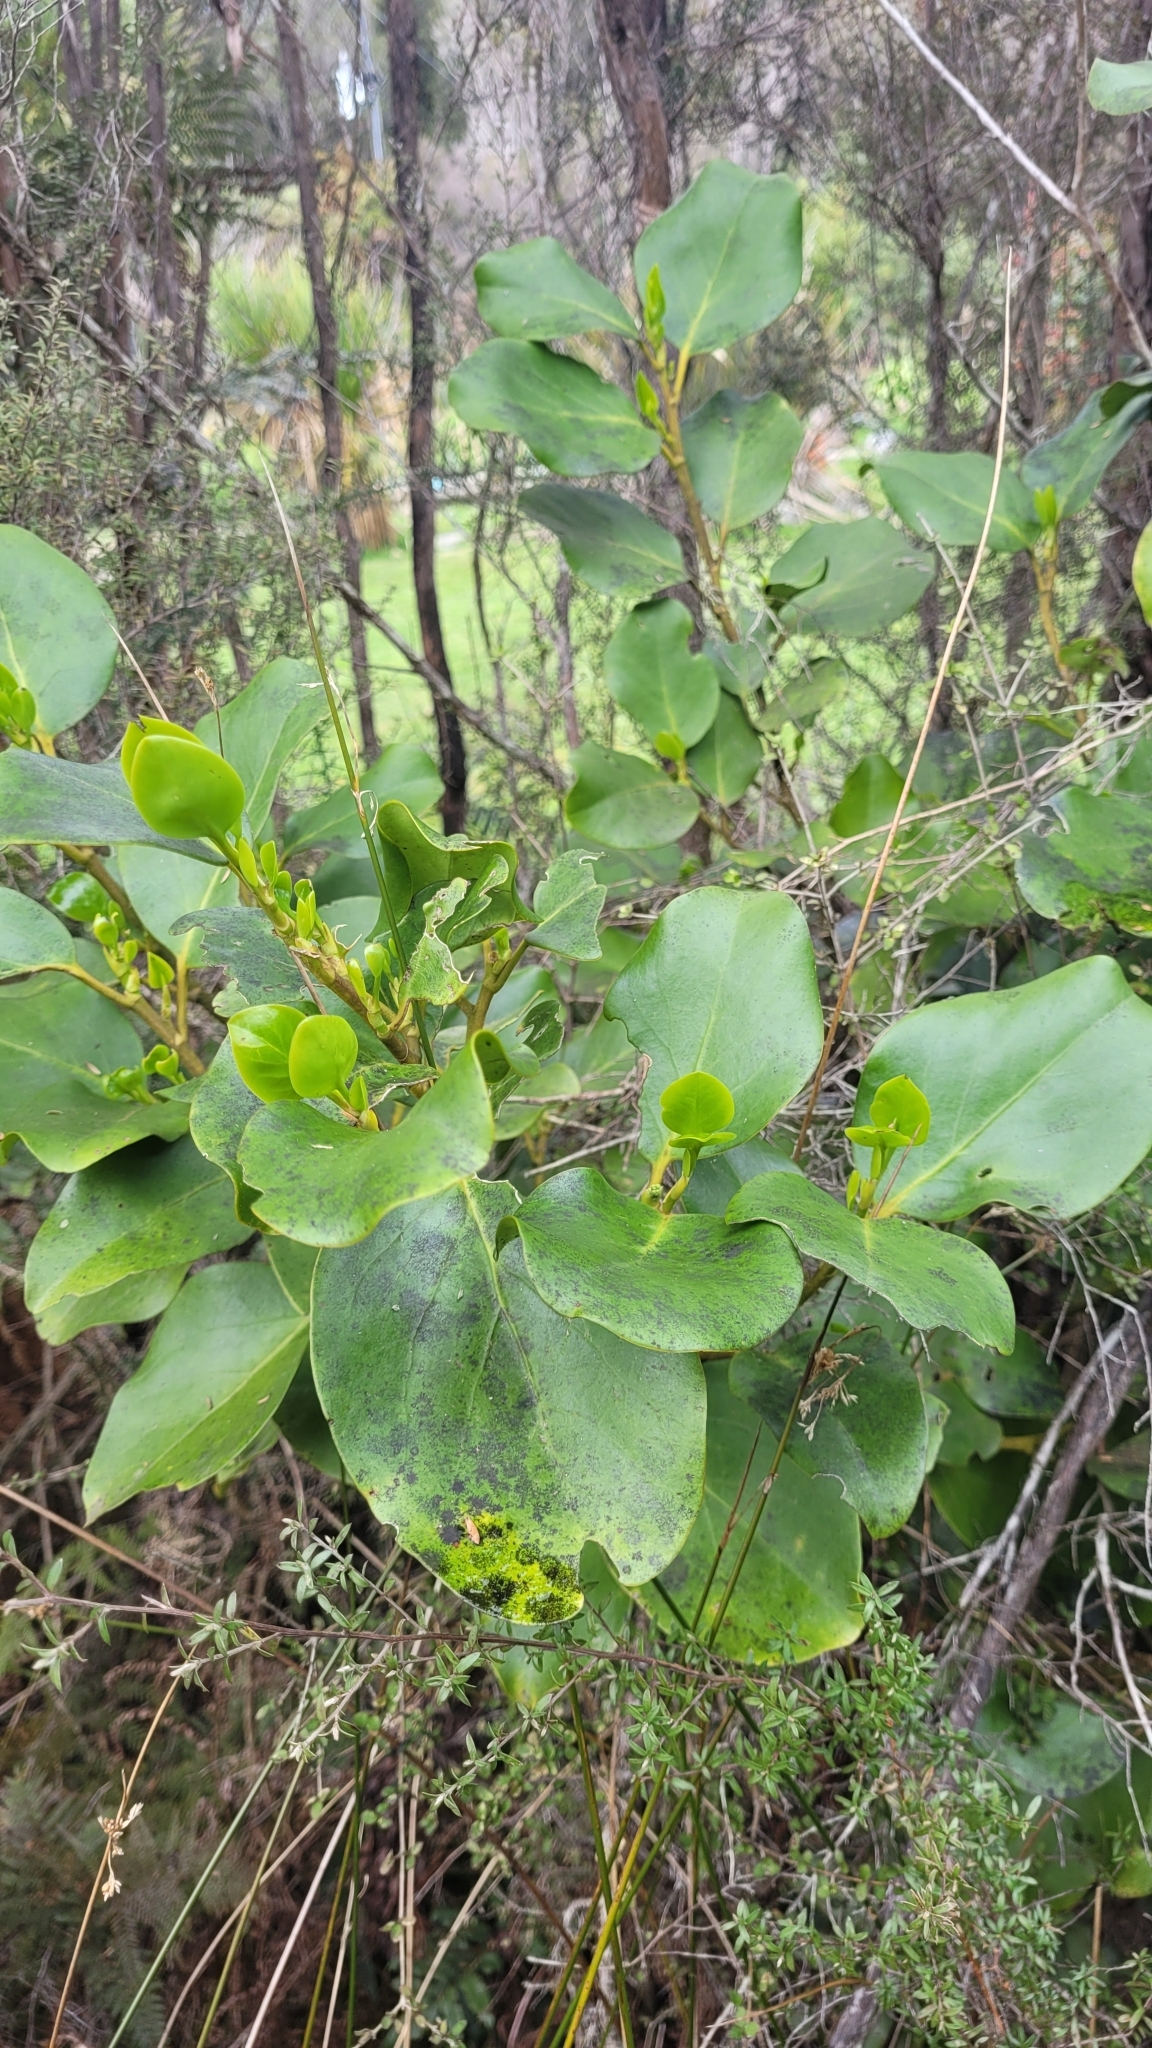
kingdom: Plantae
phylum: Tracheophyta
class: Magnoliopsida
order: Apiales
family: Griseliniaceae
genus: Griselinia
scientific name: Griselinia littoralis
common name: New zealand broadleaf
